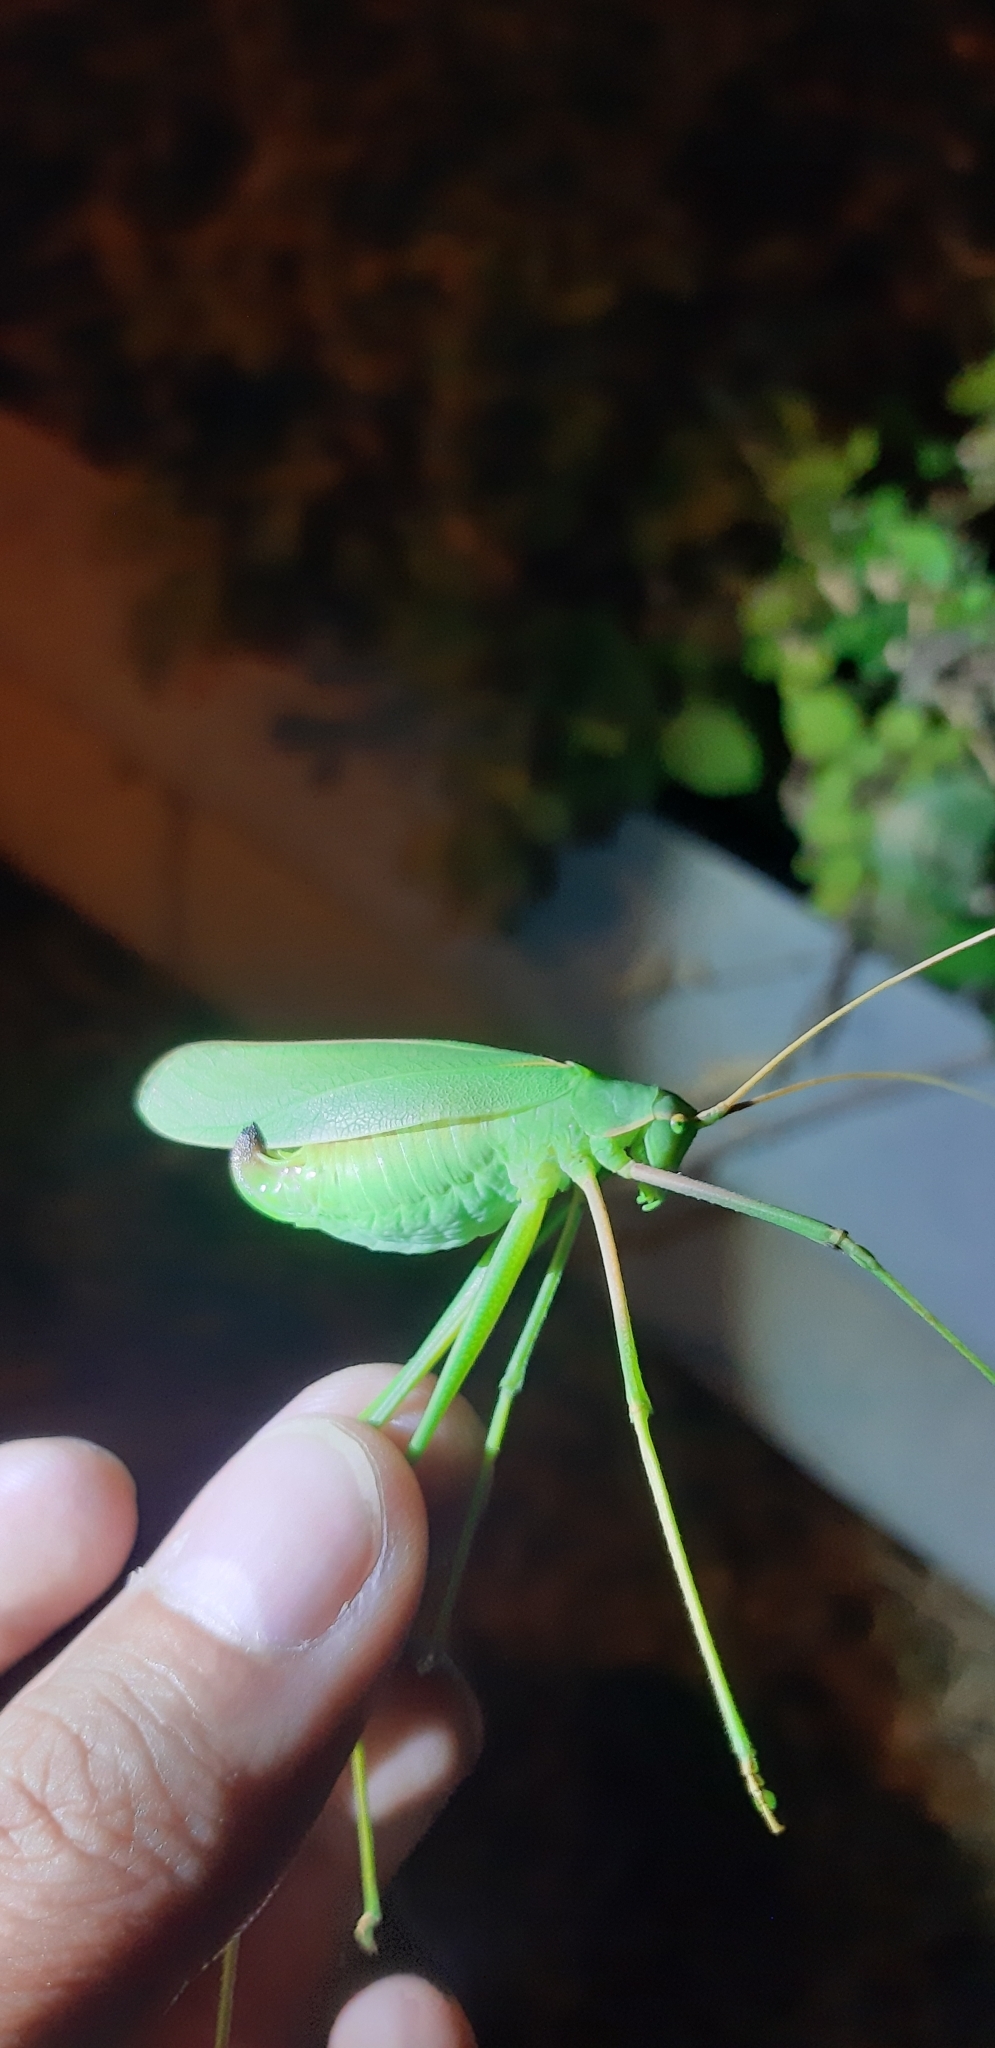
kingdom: Animalia
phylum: Arthropoda
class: Insecta
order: Orthoptera
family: Tettigoniidae
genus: Acrometopa
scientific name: Acrometopa italica
